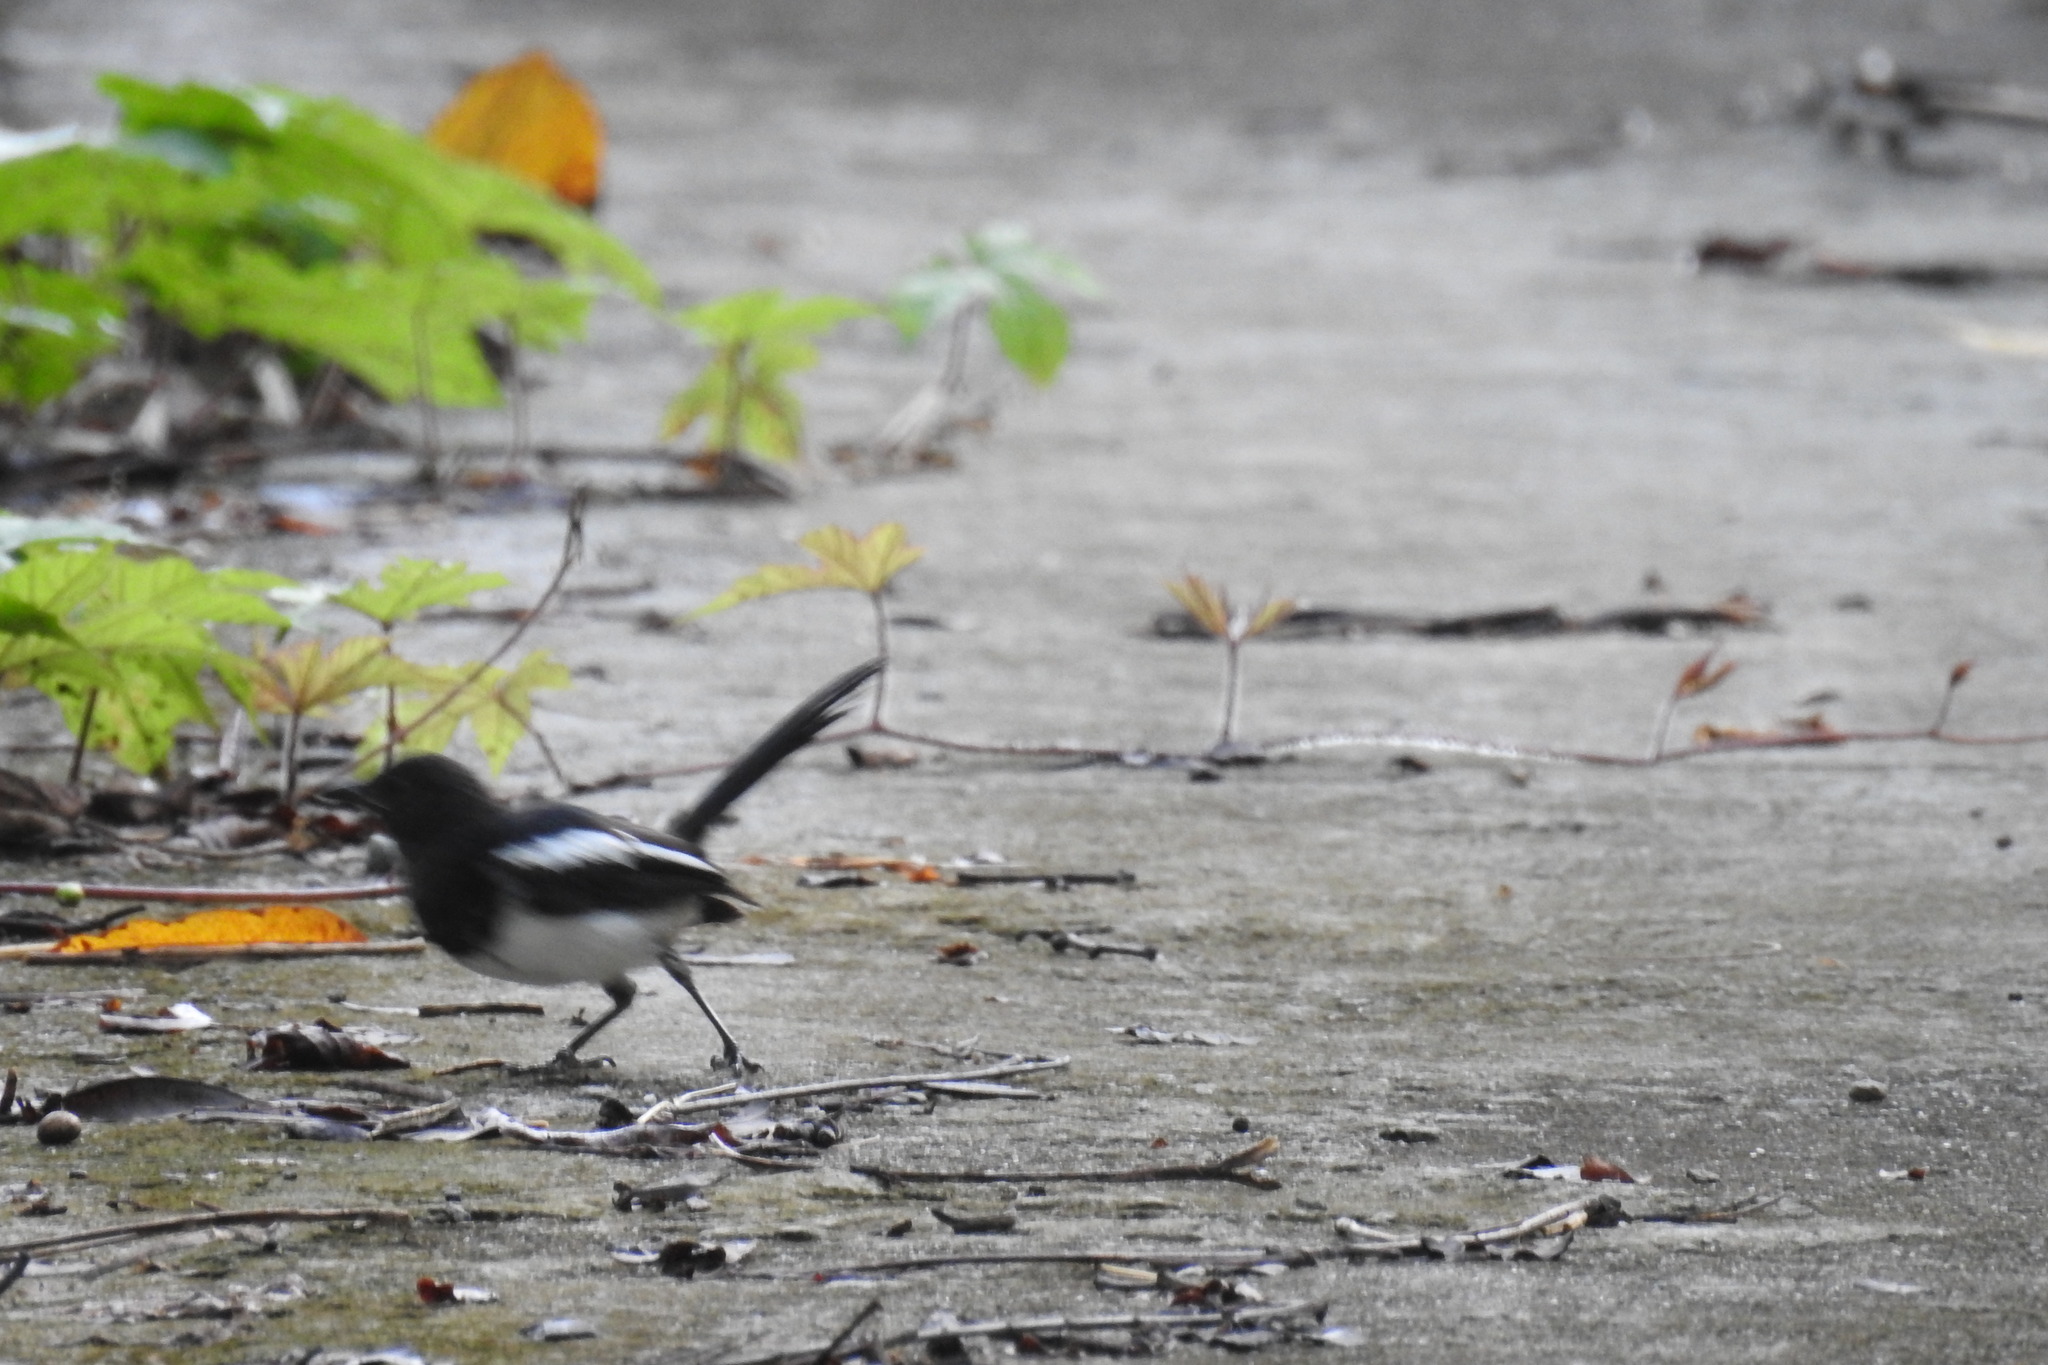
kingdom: Animalia
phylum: Chordata
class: Aves
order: Passeriformes
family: Muscicapidae
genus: Copsychus
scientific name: Copsychus mindanensis
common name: Philippine magpie-robin
